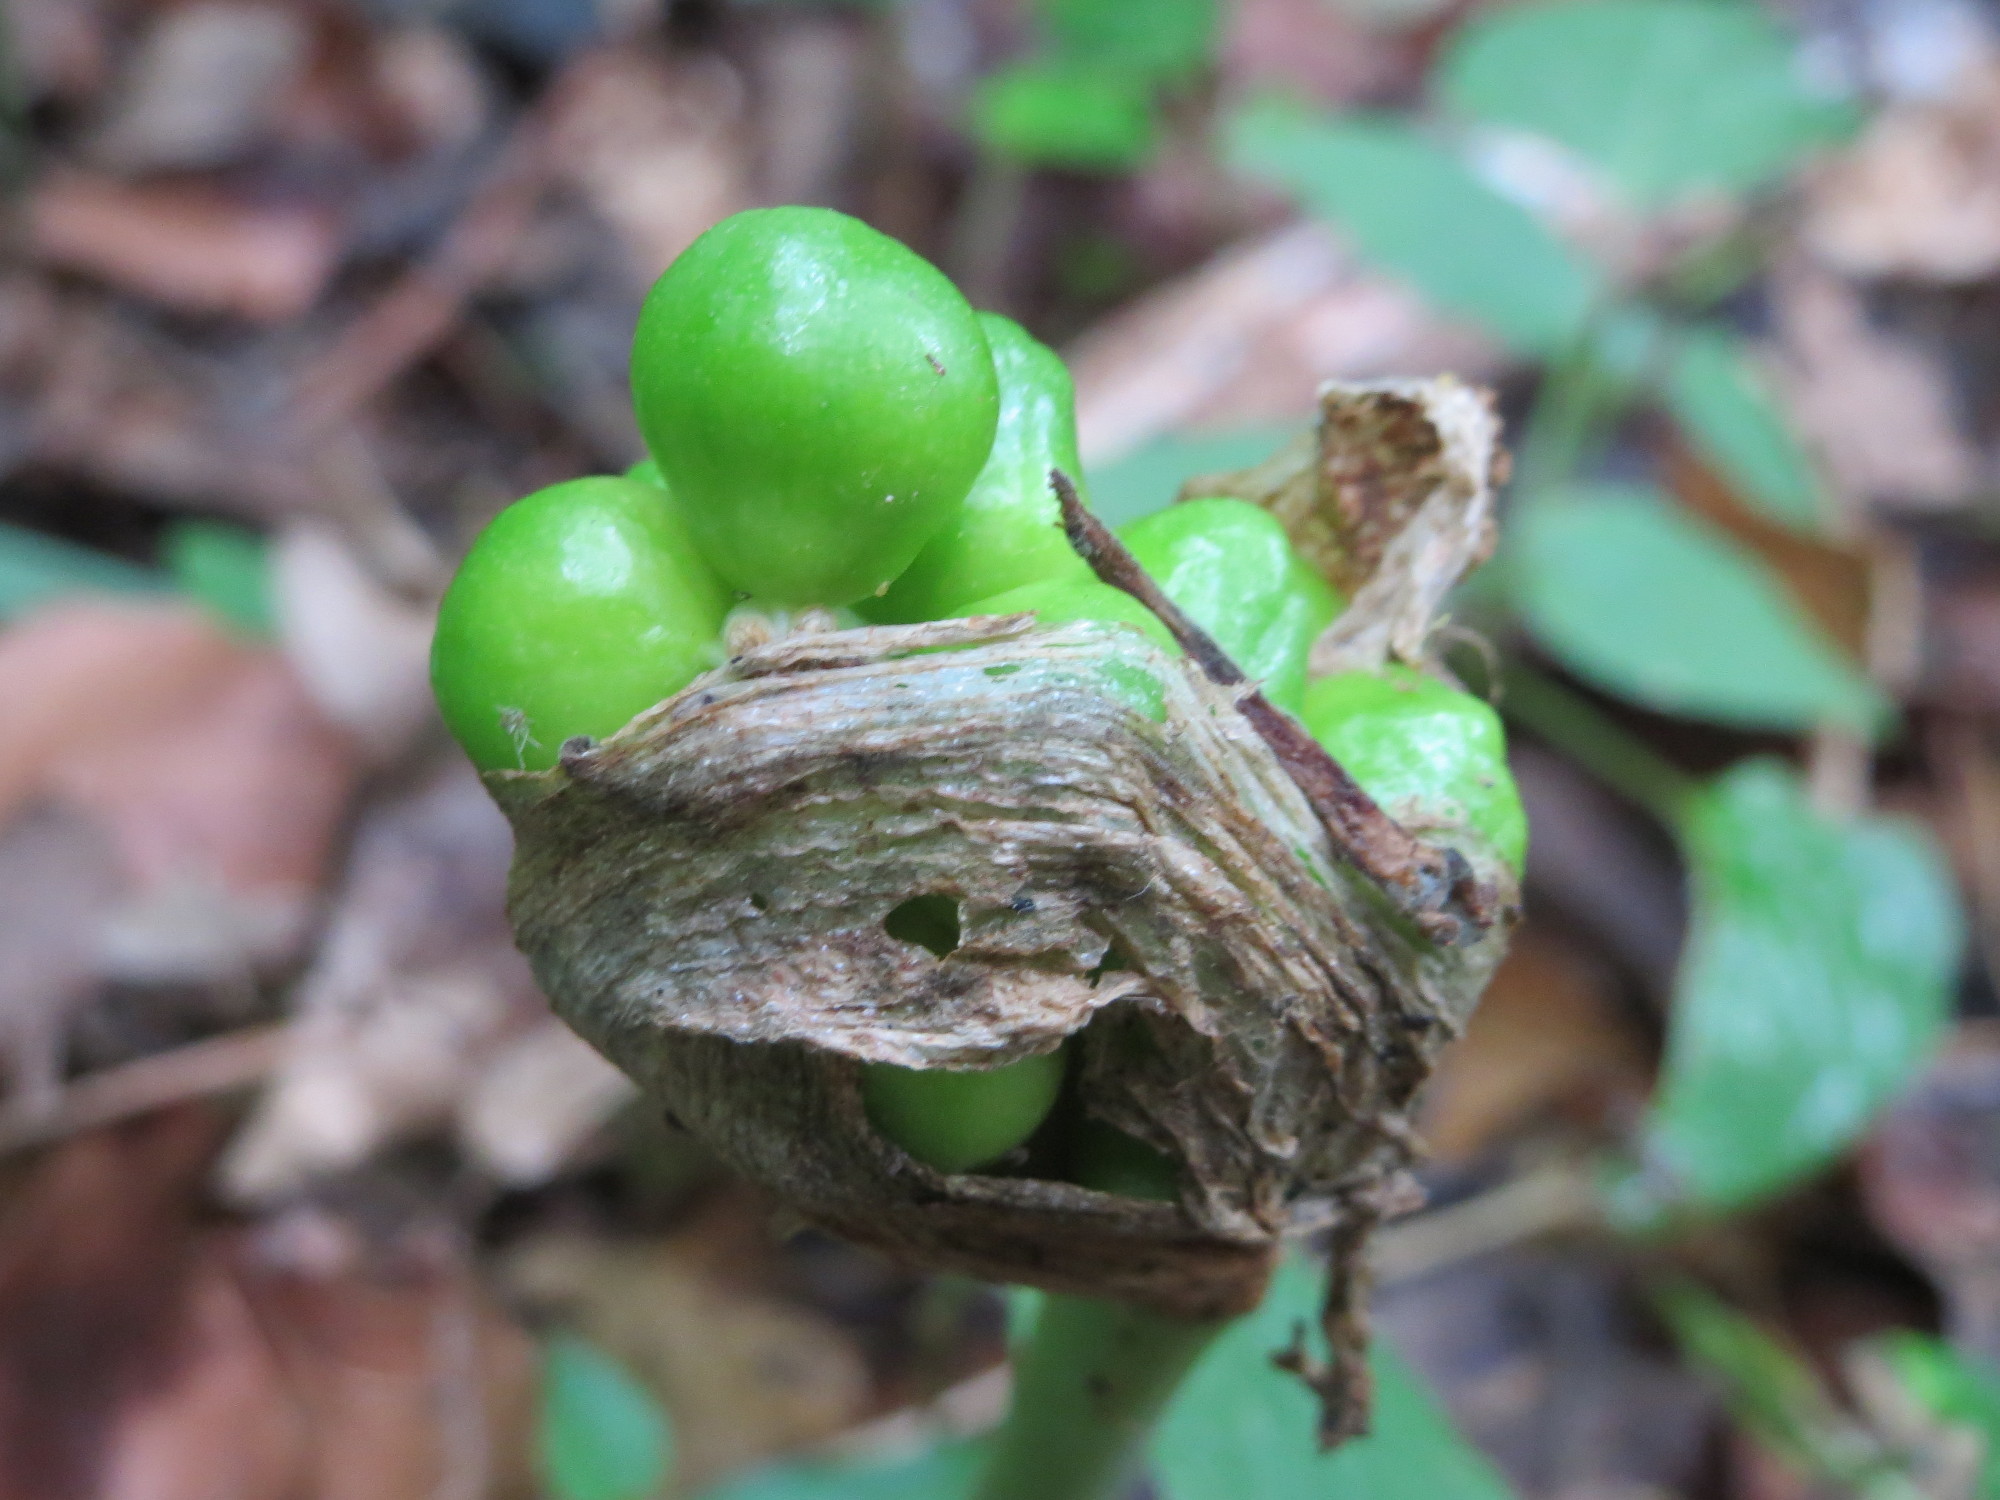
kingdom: Plantae
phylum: Tracheophyta
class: Liliopsida
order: Alismatales
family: Araceae
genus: Arum
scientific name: Arum maculatum
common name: Lords-and-ladies
